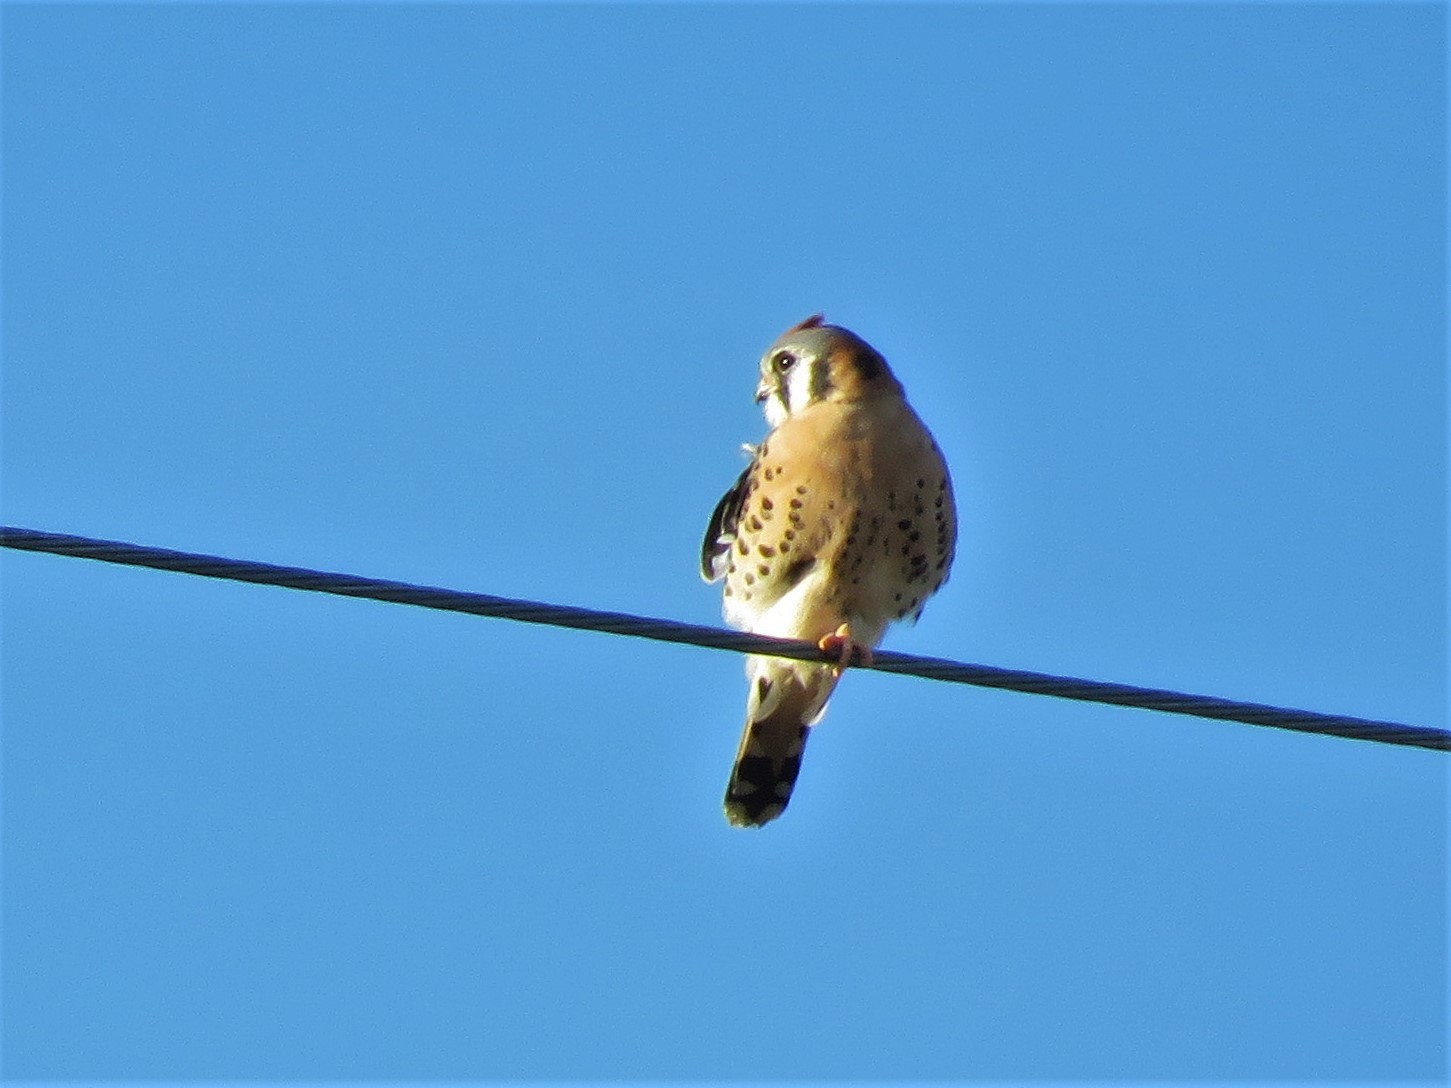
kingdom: Animalia
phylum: Chordata
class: Aves
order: Falconiformes
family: Falconidae
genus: Falco
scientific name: Falco sparverius
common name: American kestrel
